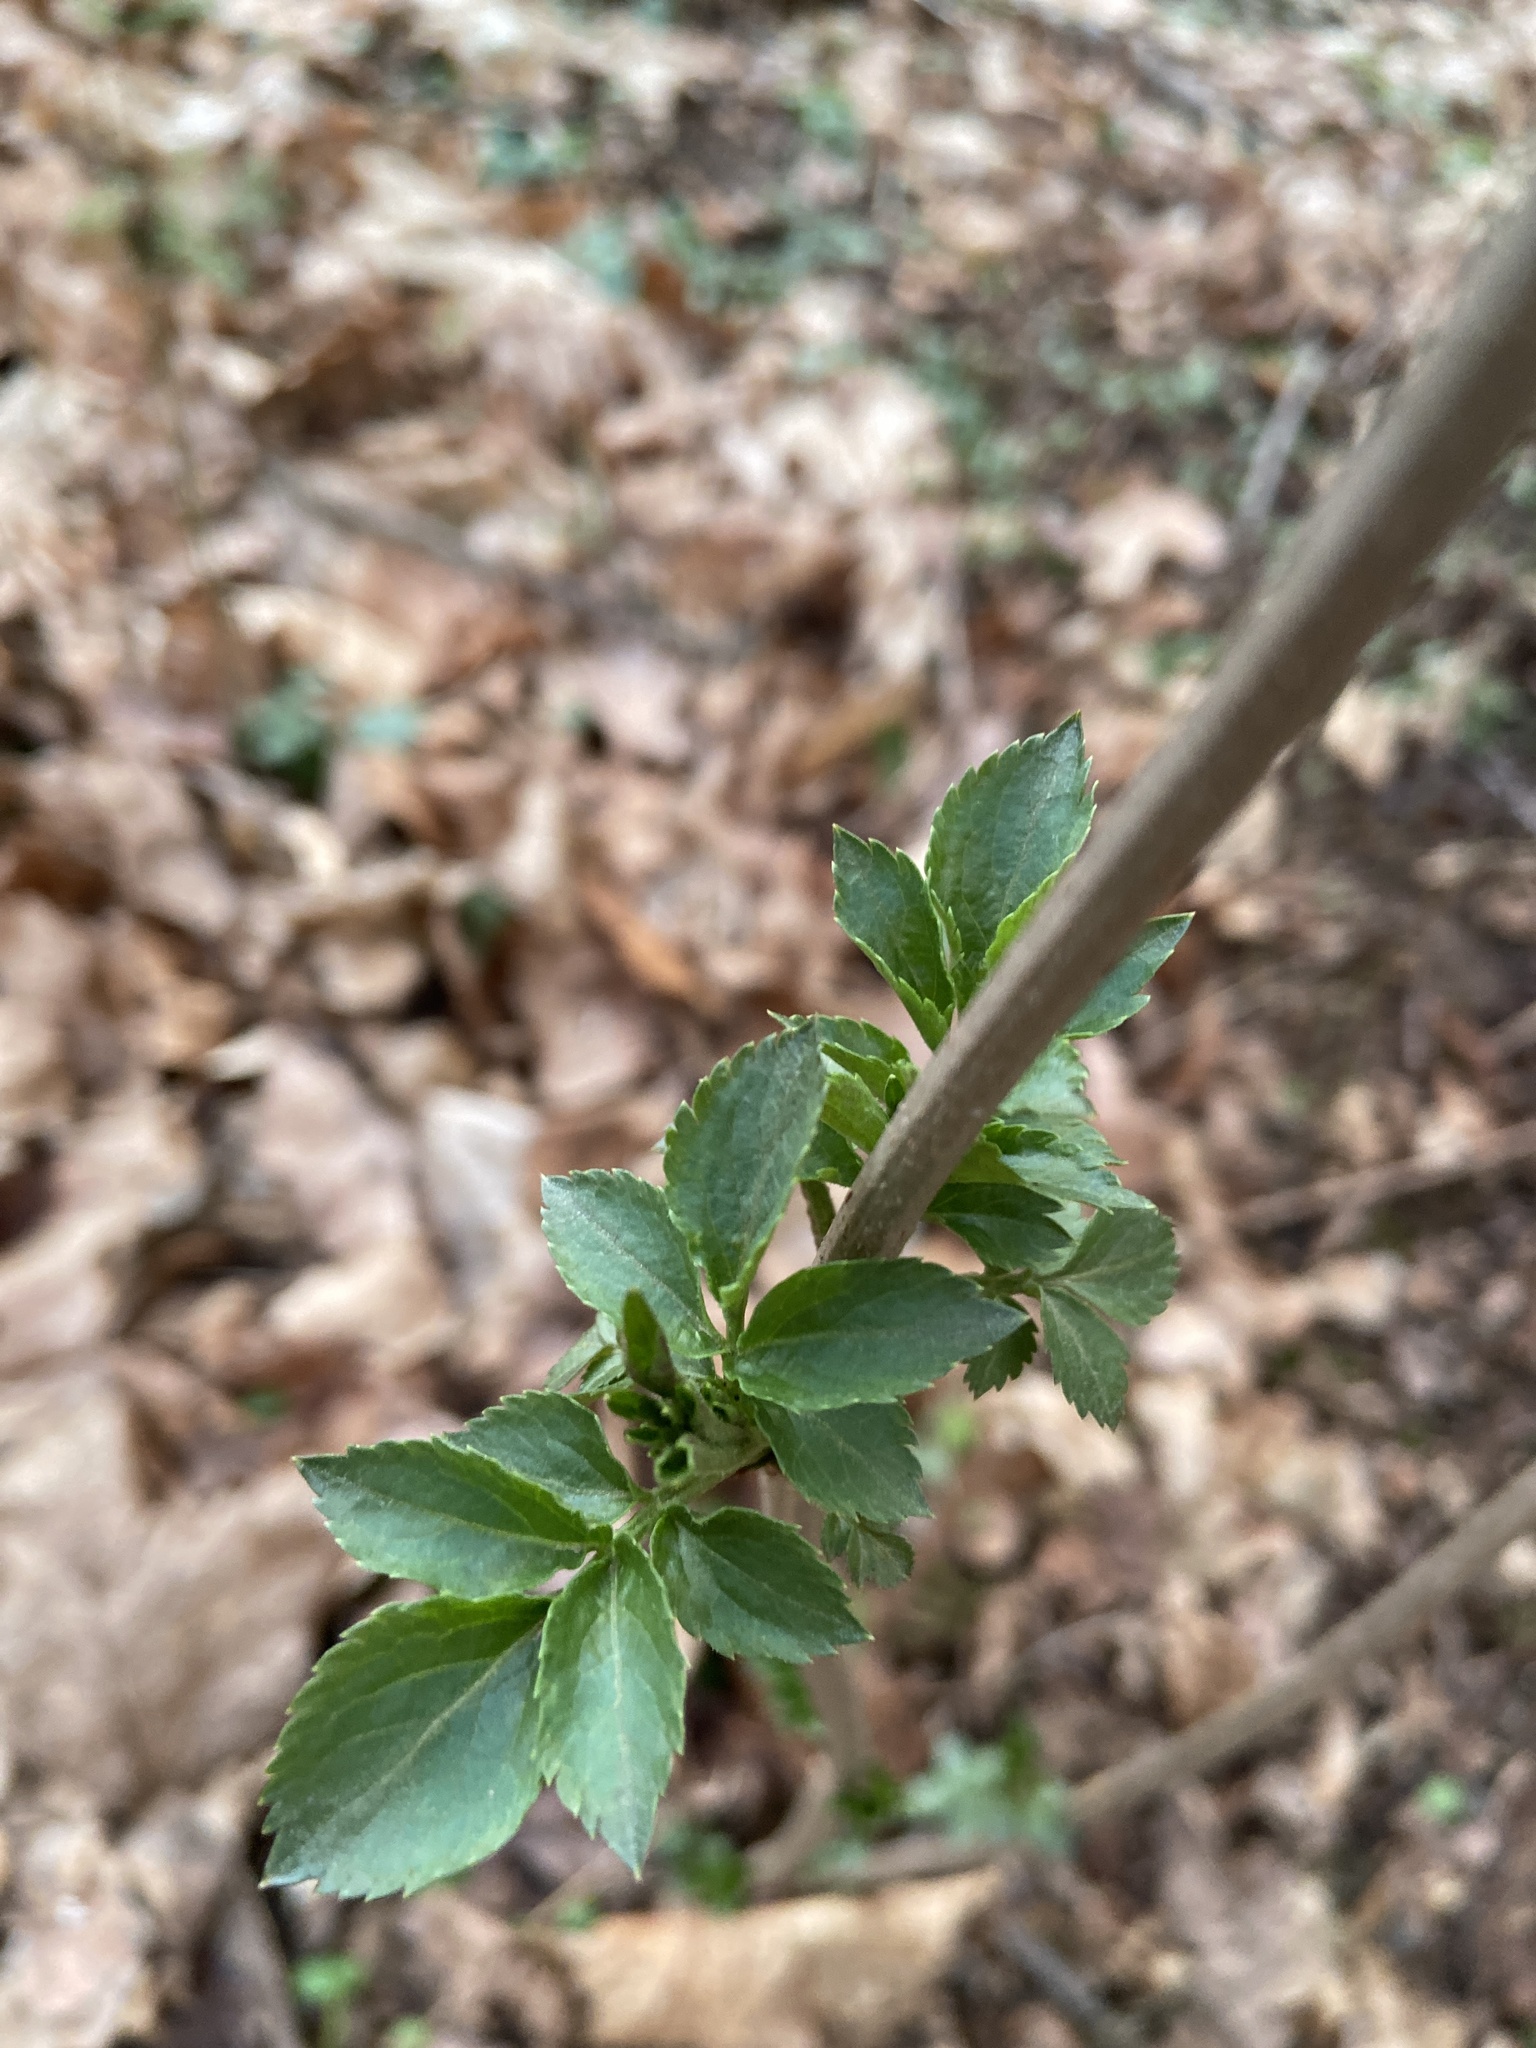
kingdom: Plantae
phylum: Tracheophyta
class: Magnoliopsida
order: Dipsacales
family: Viburnaceae
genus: Sambucus
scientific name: Sambucus nigra
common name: Elder
